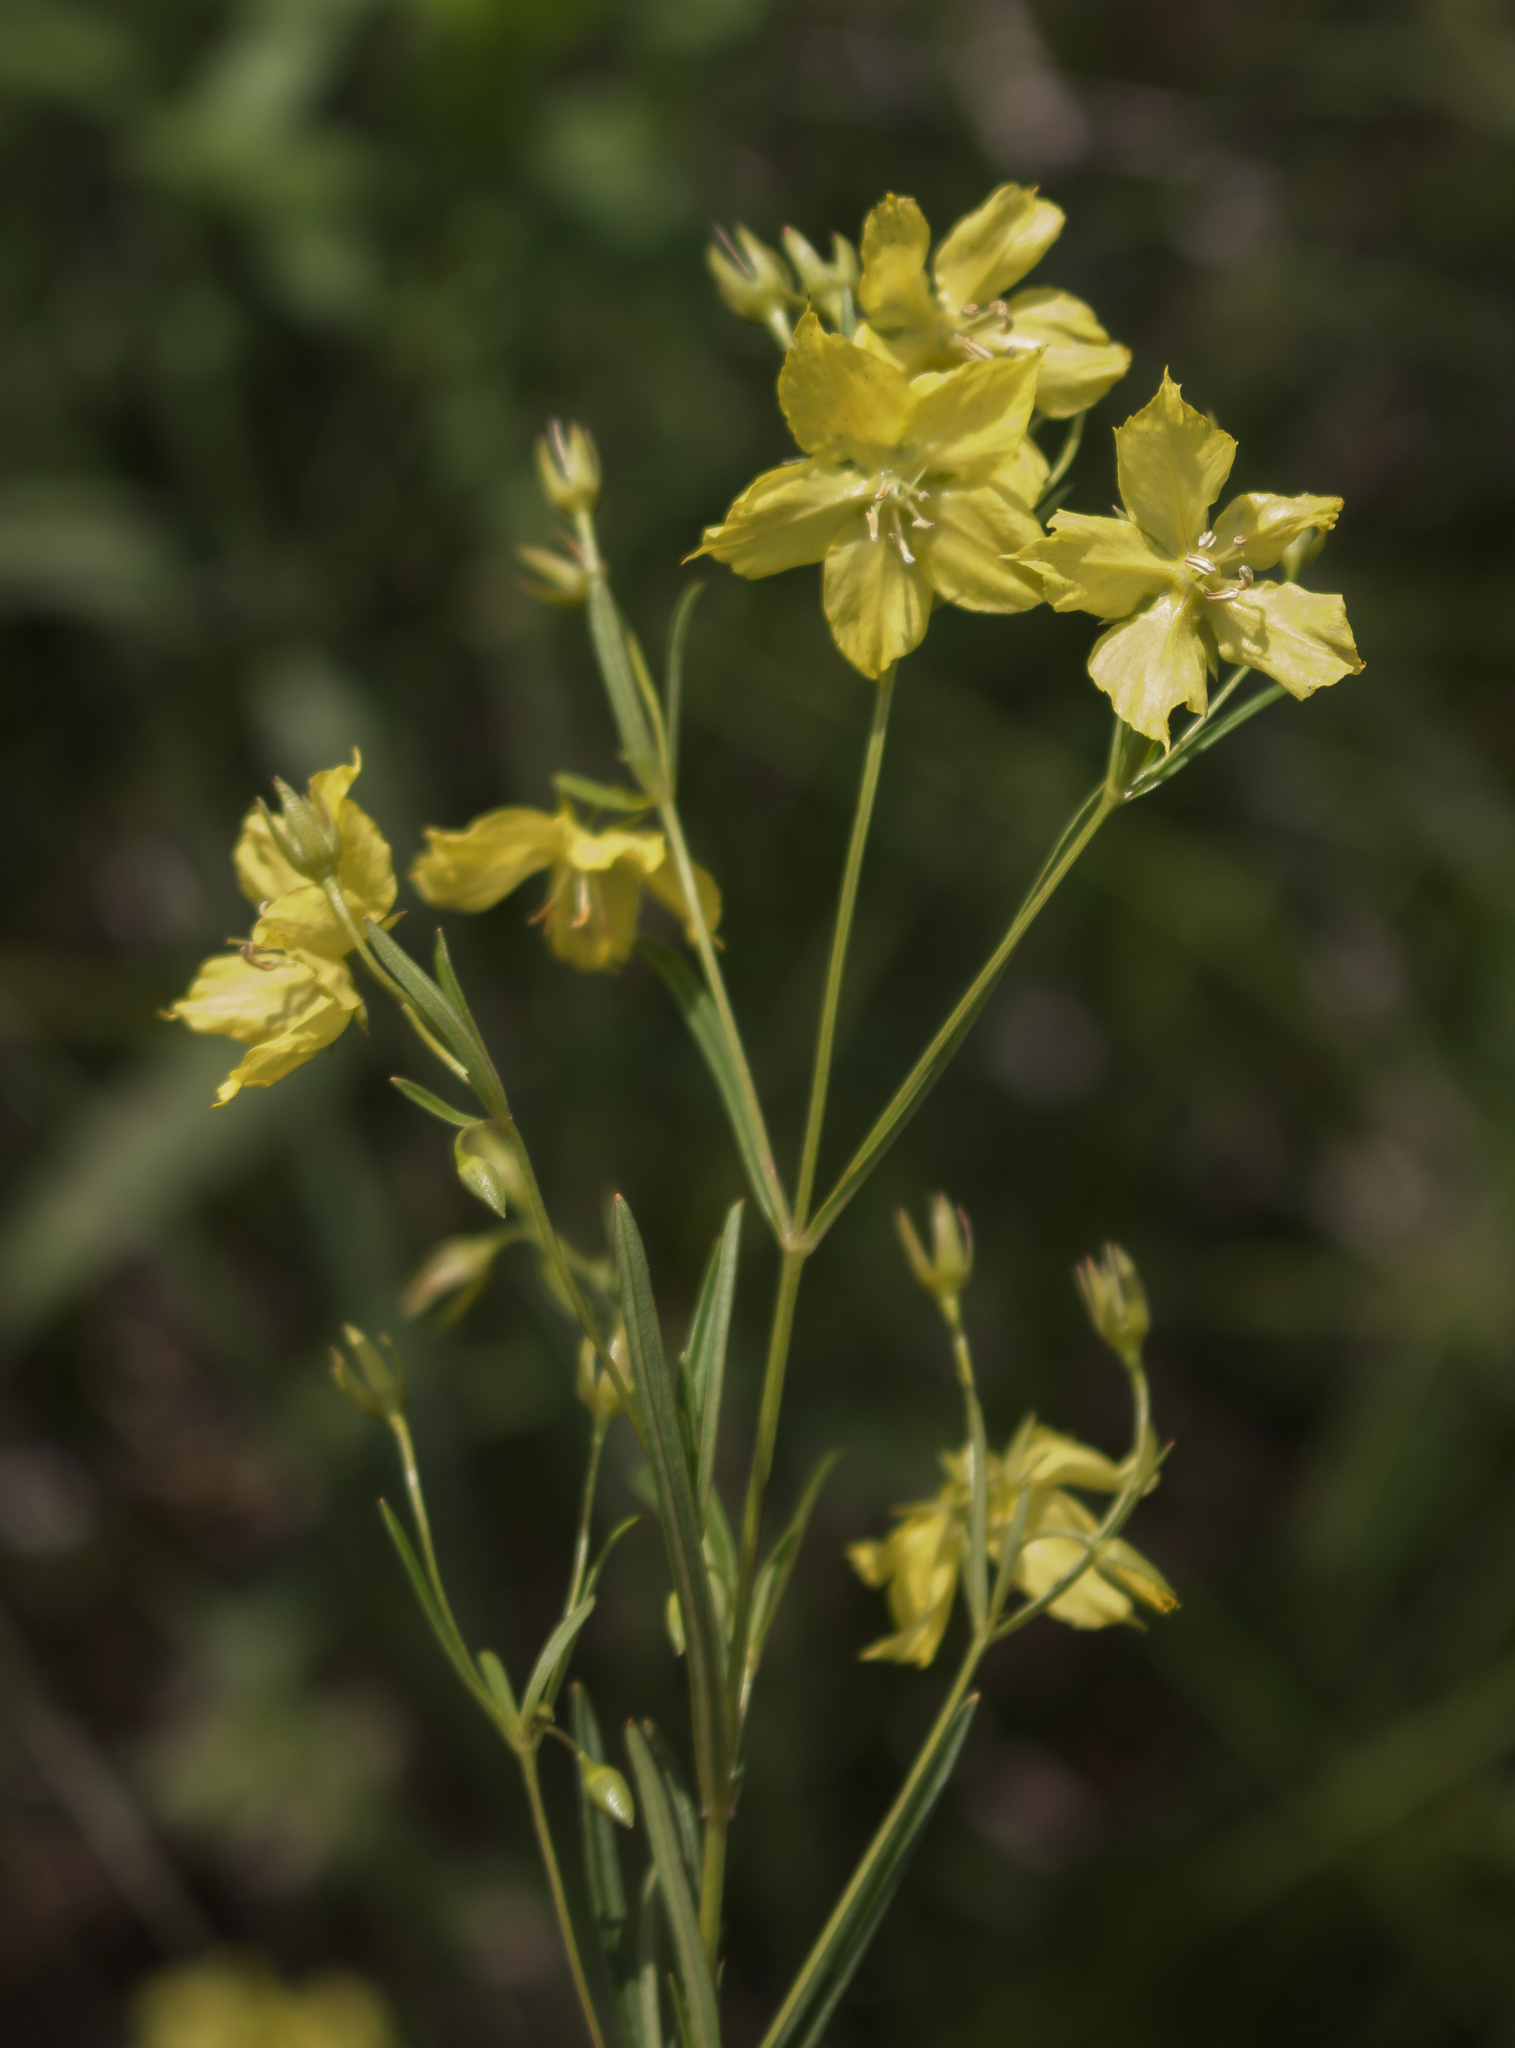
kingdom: Plantae
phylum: Tracheophyta
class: Magnoliopsida
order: Ericales
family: Primulaceae
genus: Lysimachia
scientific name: Lysimachia quadriflora
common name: Four-flowered loosestrife
